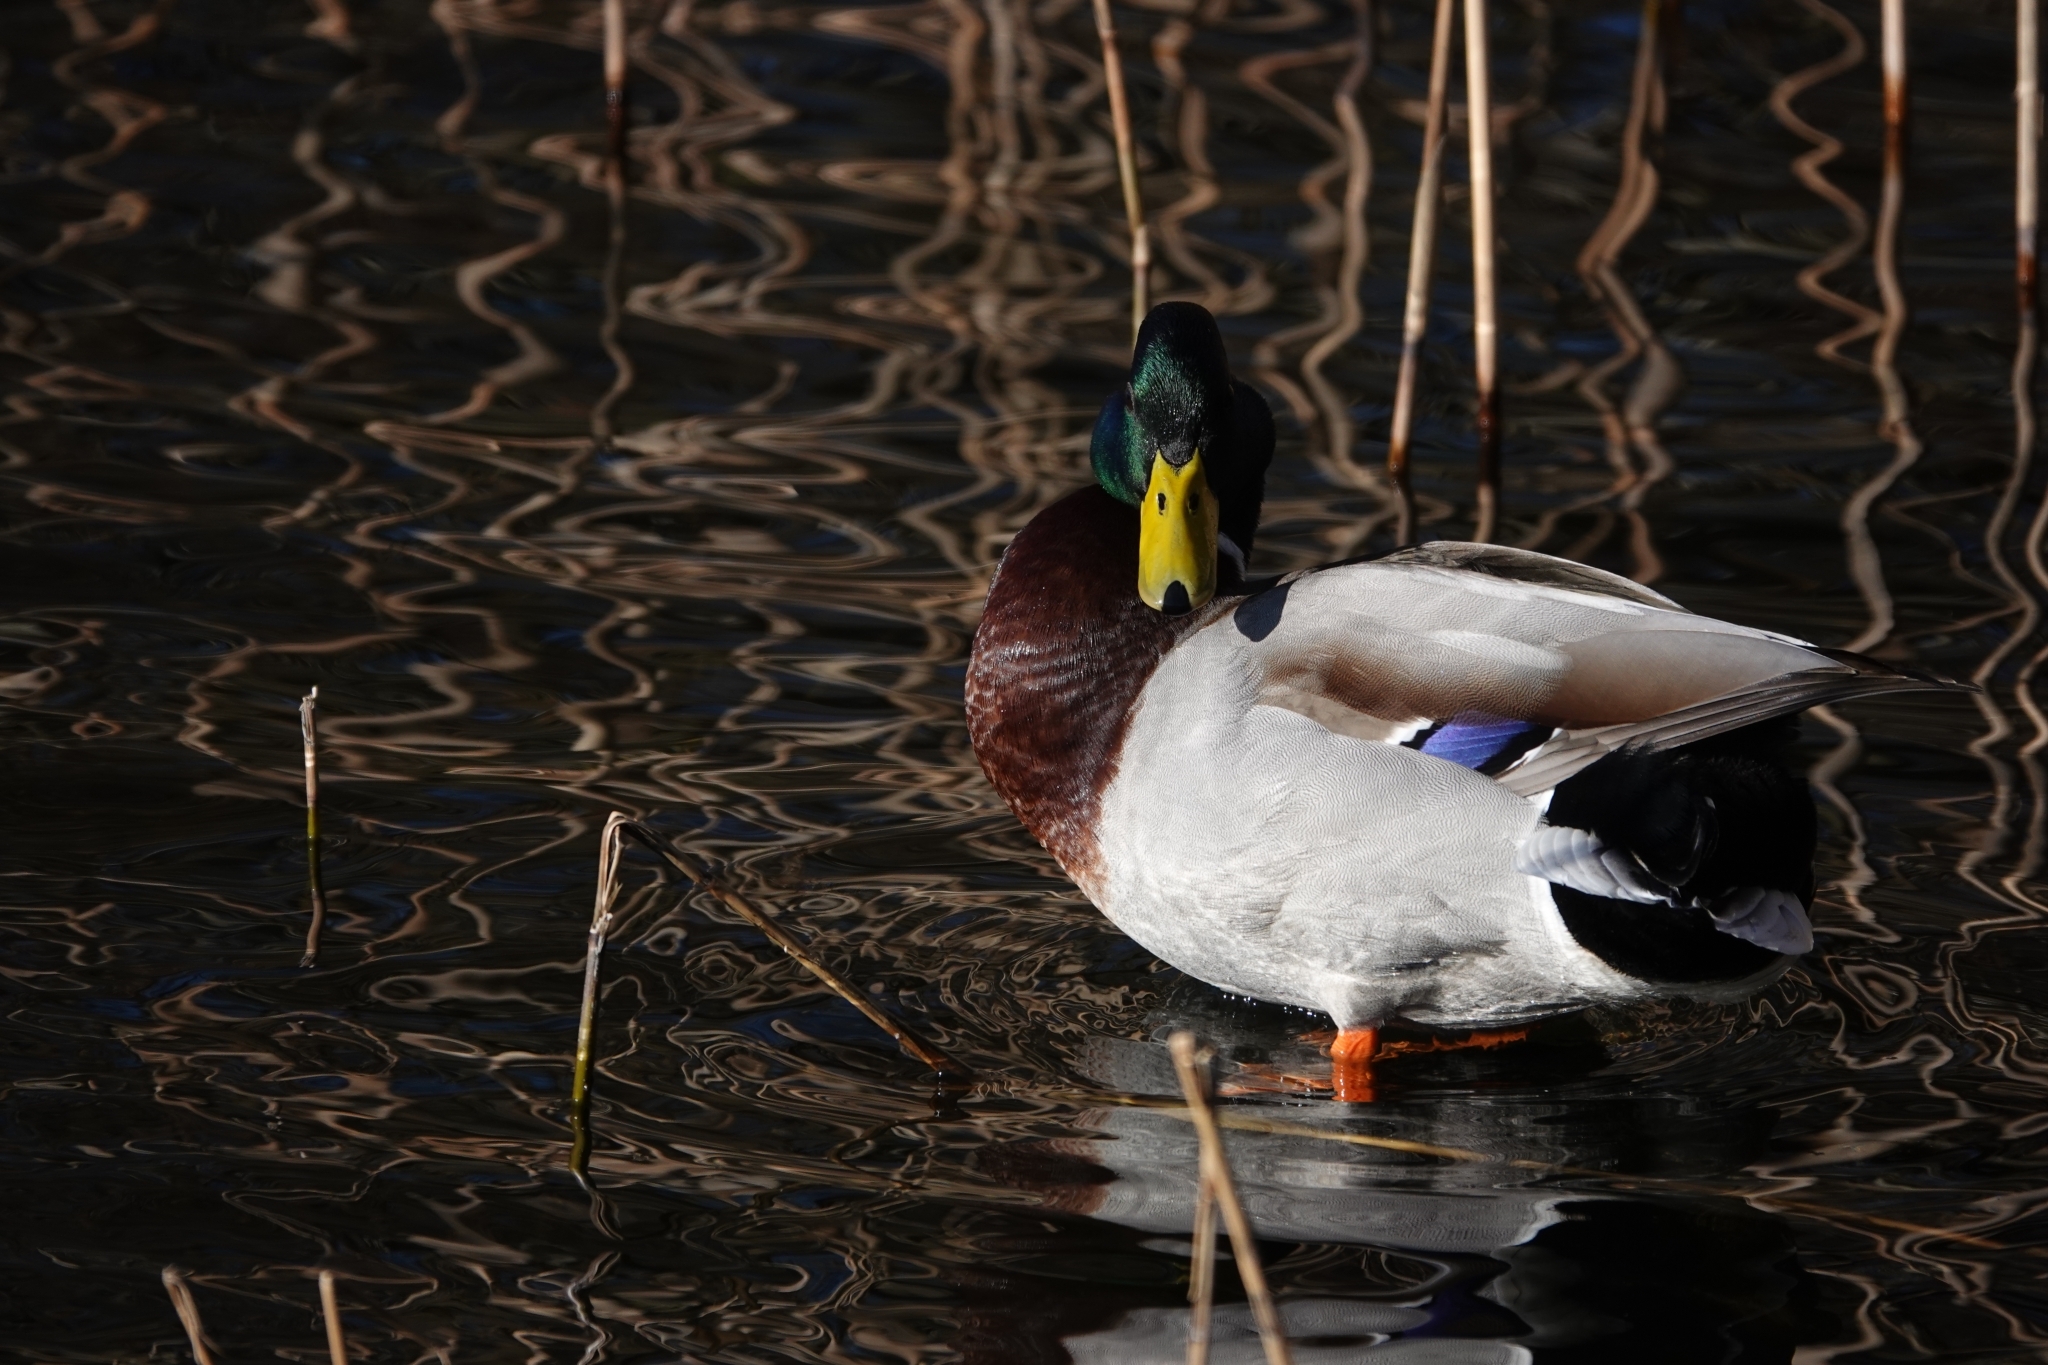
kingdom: Animalia
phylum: Chordata
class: Aves
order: Anseriformes
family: Anatidae
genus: Anas
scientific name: Anas platyrhynchos
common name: Mallard
